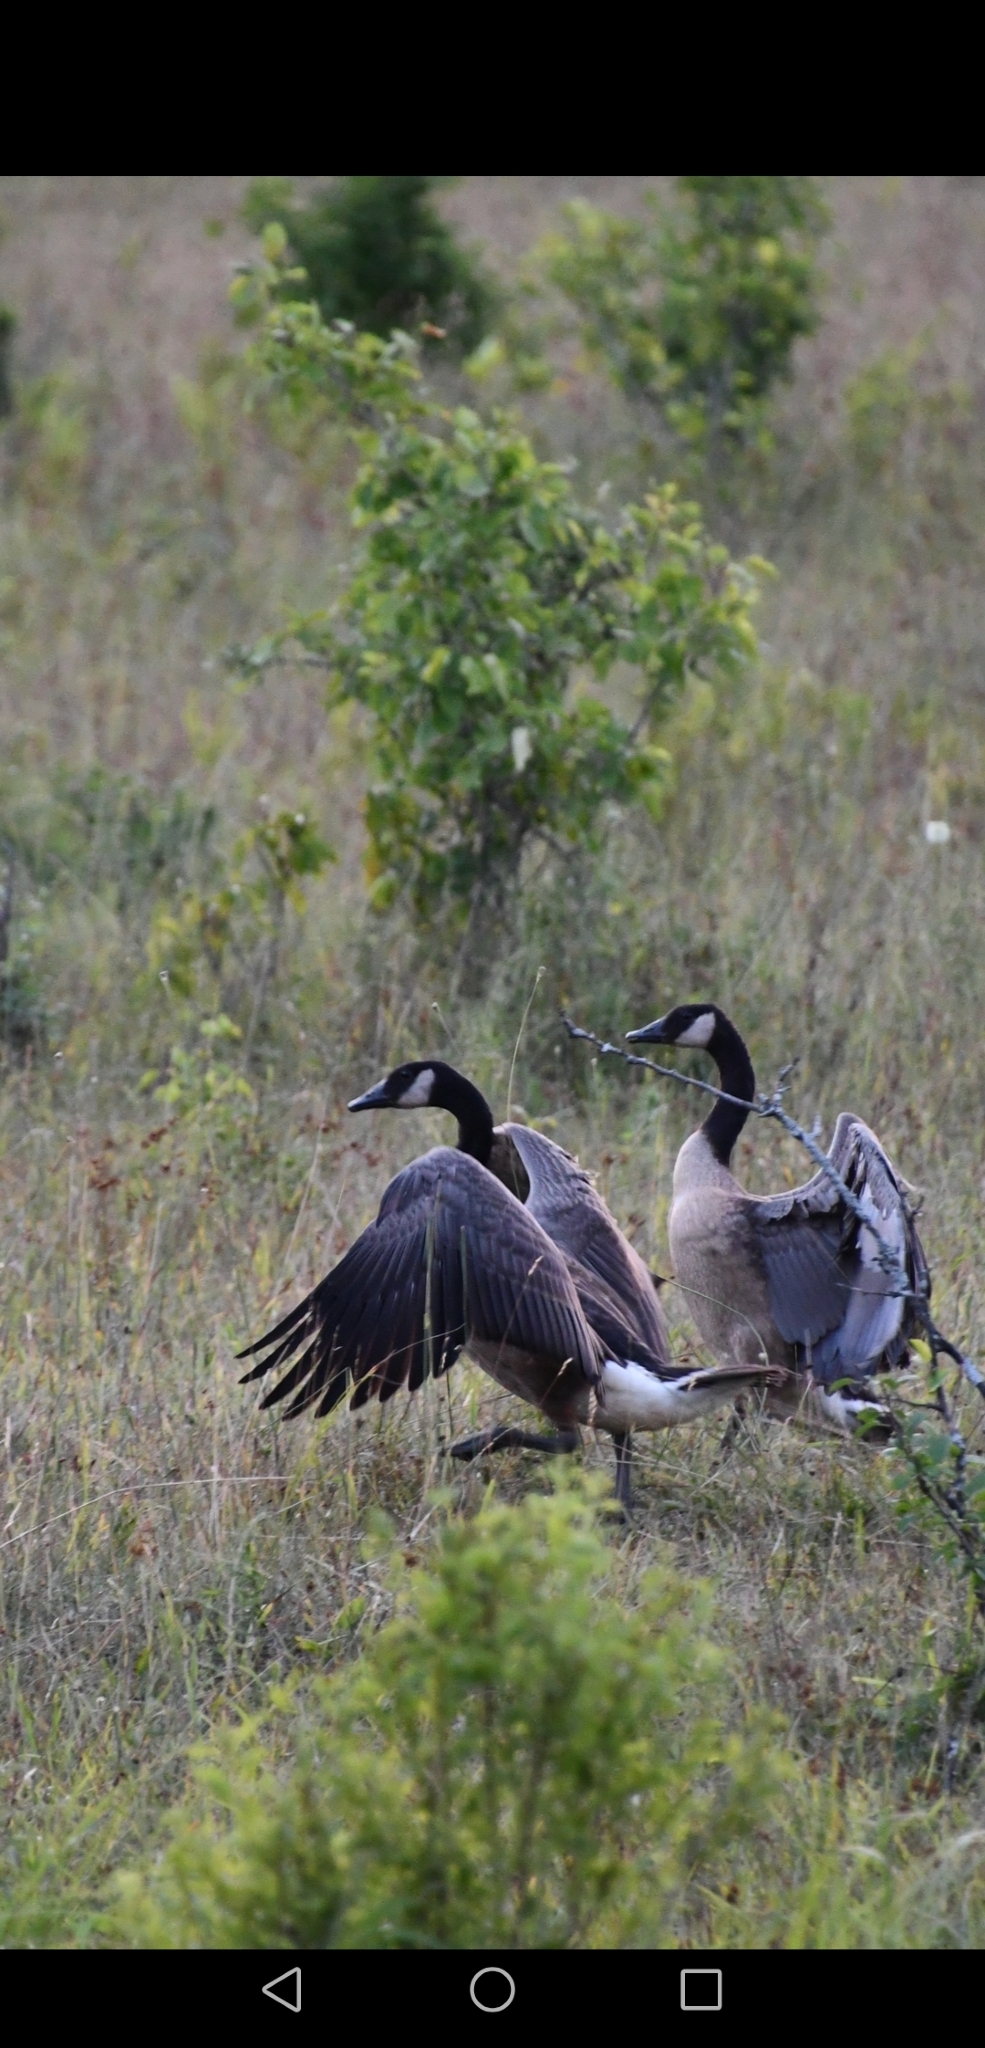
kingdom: Animalia
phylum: Chordata
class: Aves
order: Anseriformes
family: Anatidae
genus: Branta
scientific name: Branta canadensis
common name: Canada goose
